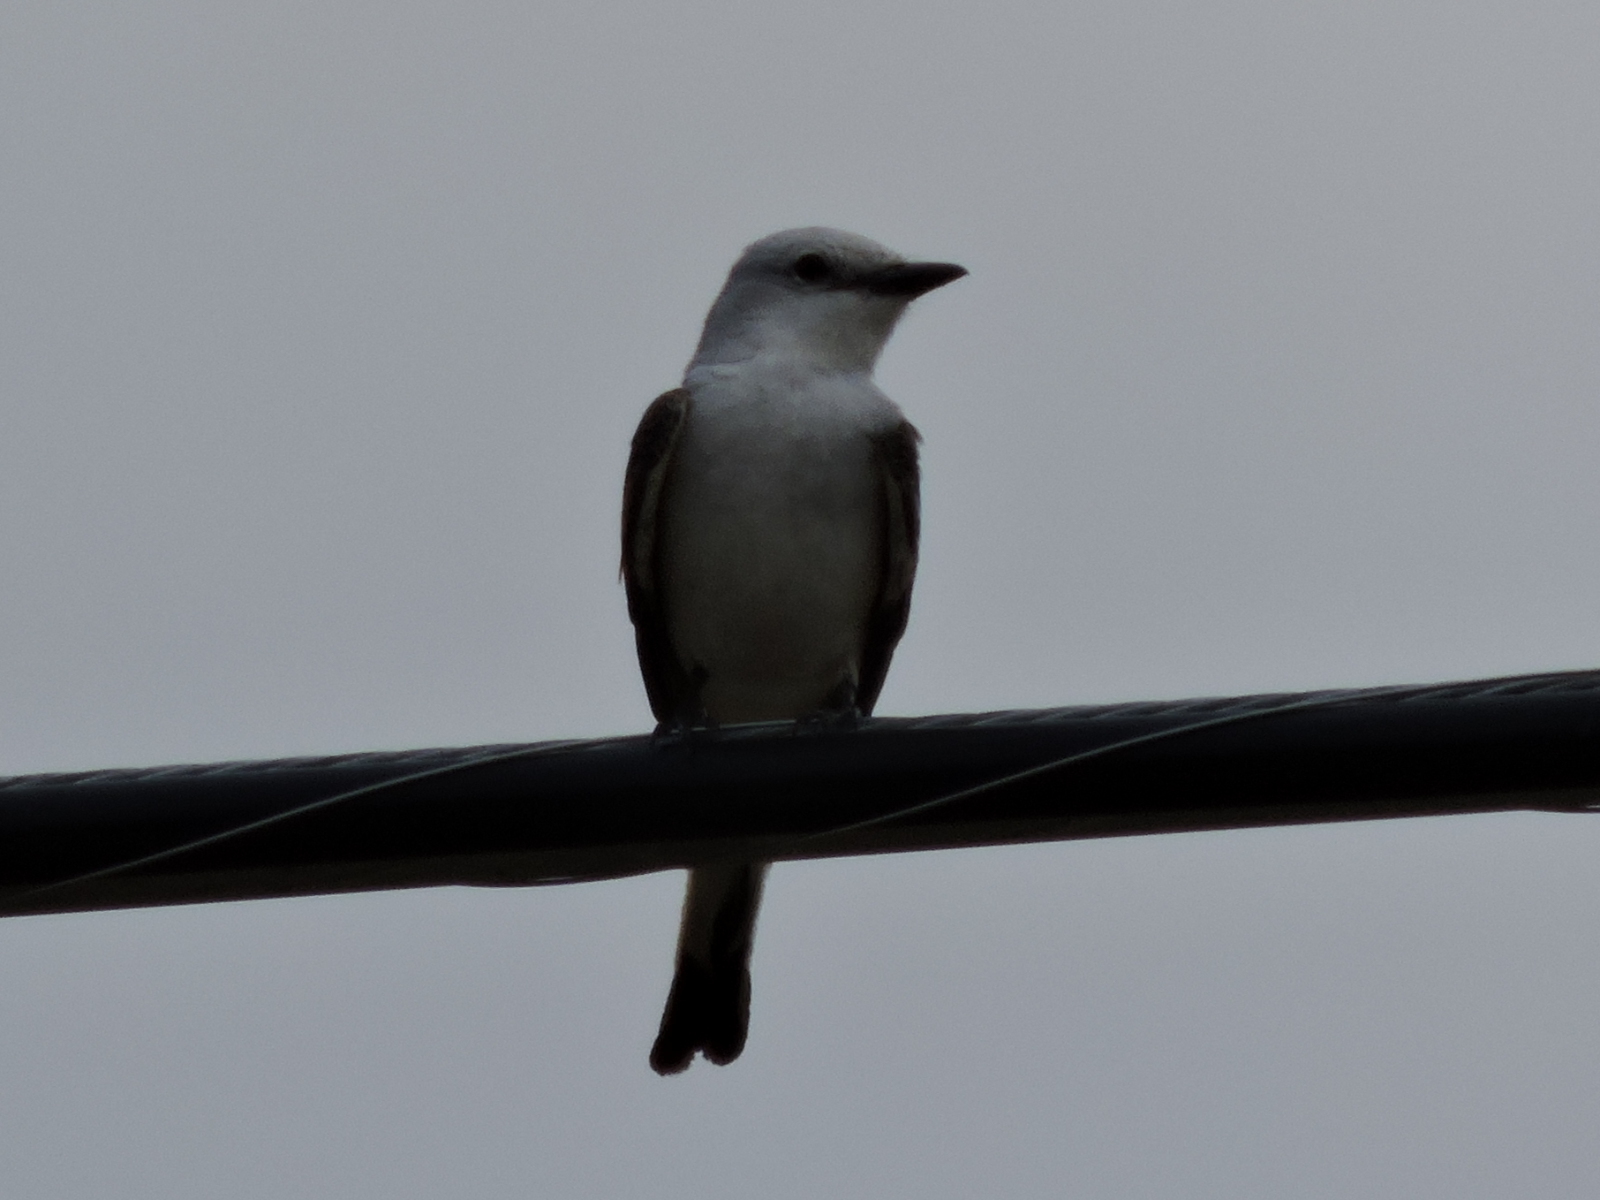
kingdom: Animalia
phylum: Chordata
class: Aves
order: Passeriformes
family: Tyrannidae
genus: Tyrannus
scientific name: Tyrannus forficatus
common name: Scissor-tailed flycatcher
